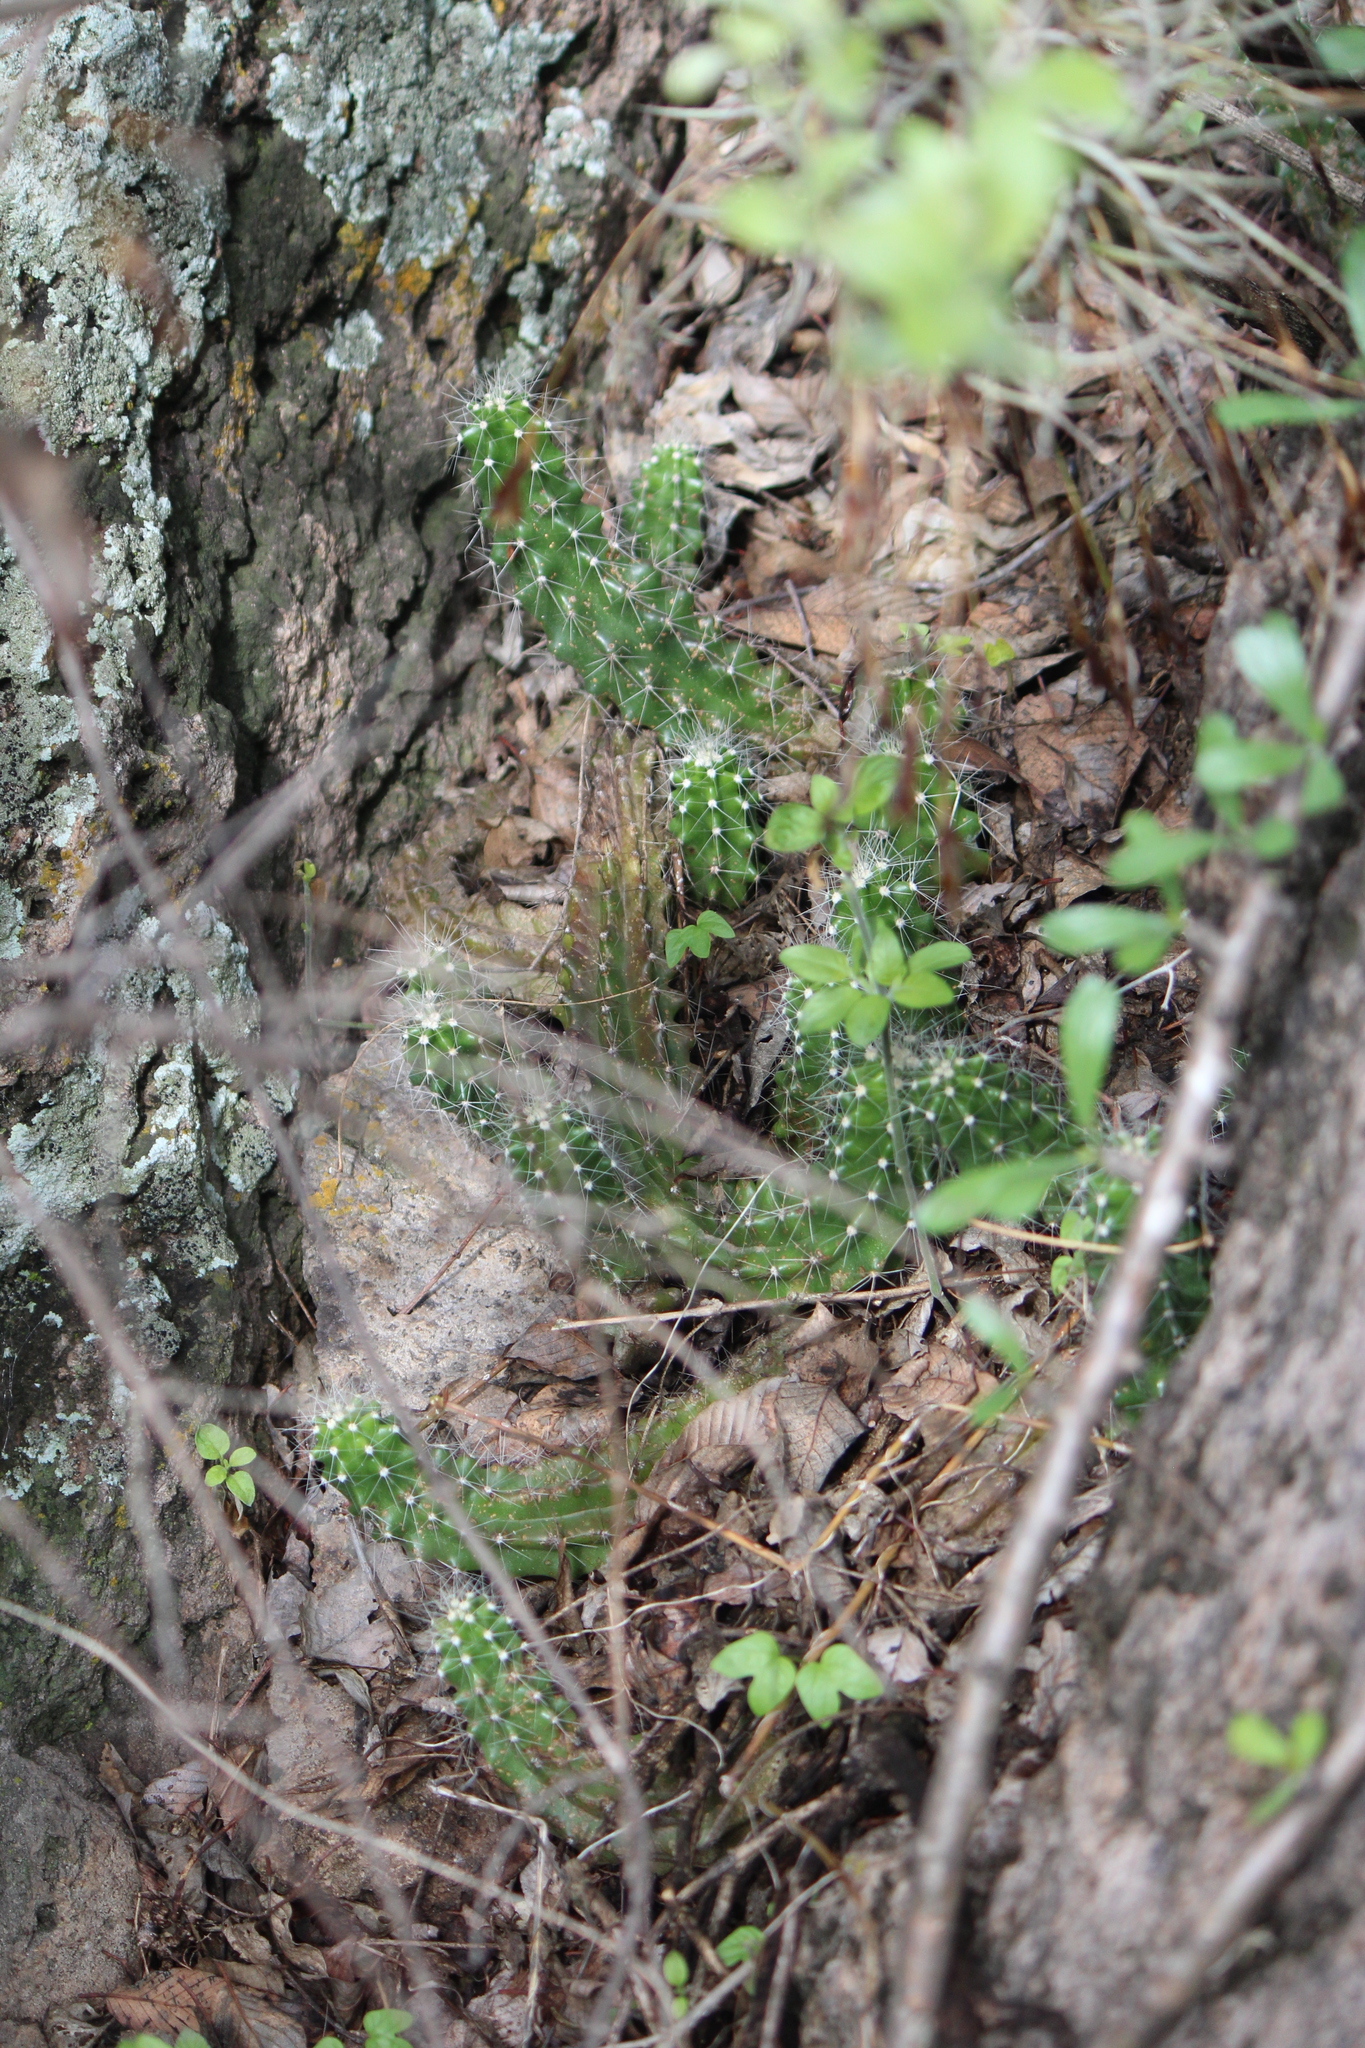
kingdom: Plantae
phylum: Tracheophyta
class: Magnoliopsida
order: Caryophyllales
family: Cactaceae
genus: Echinocereus
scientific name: Echinocereus cinerascens
